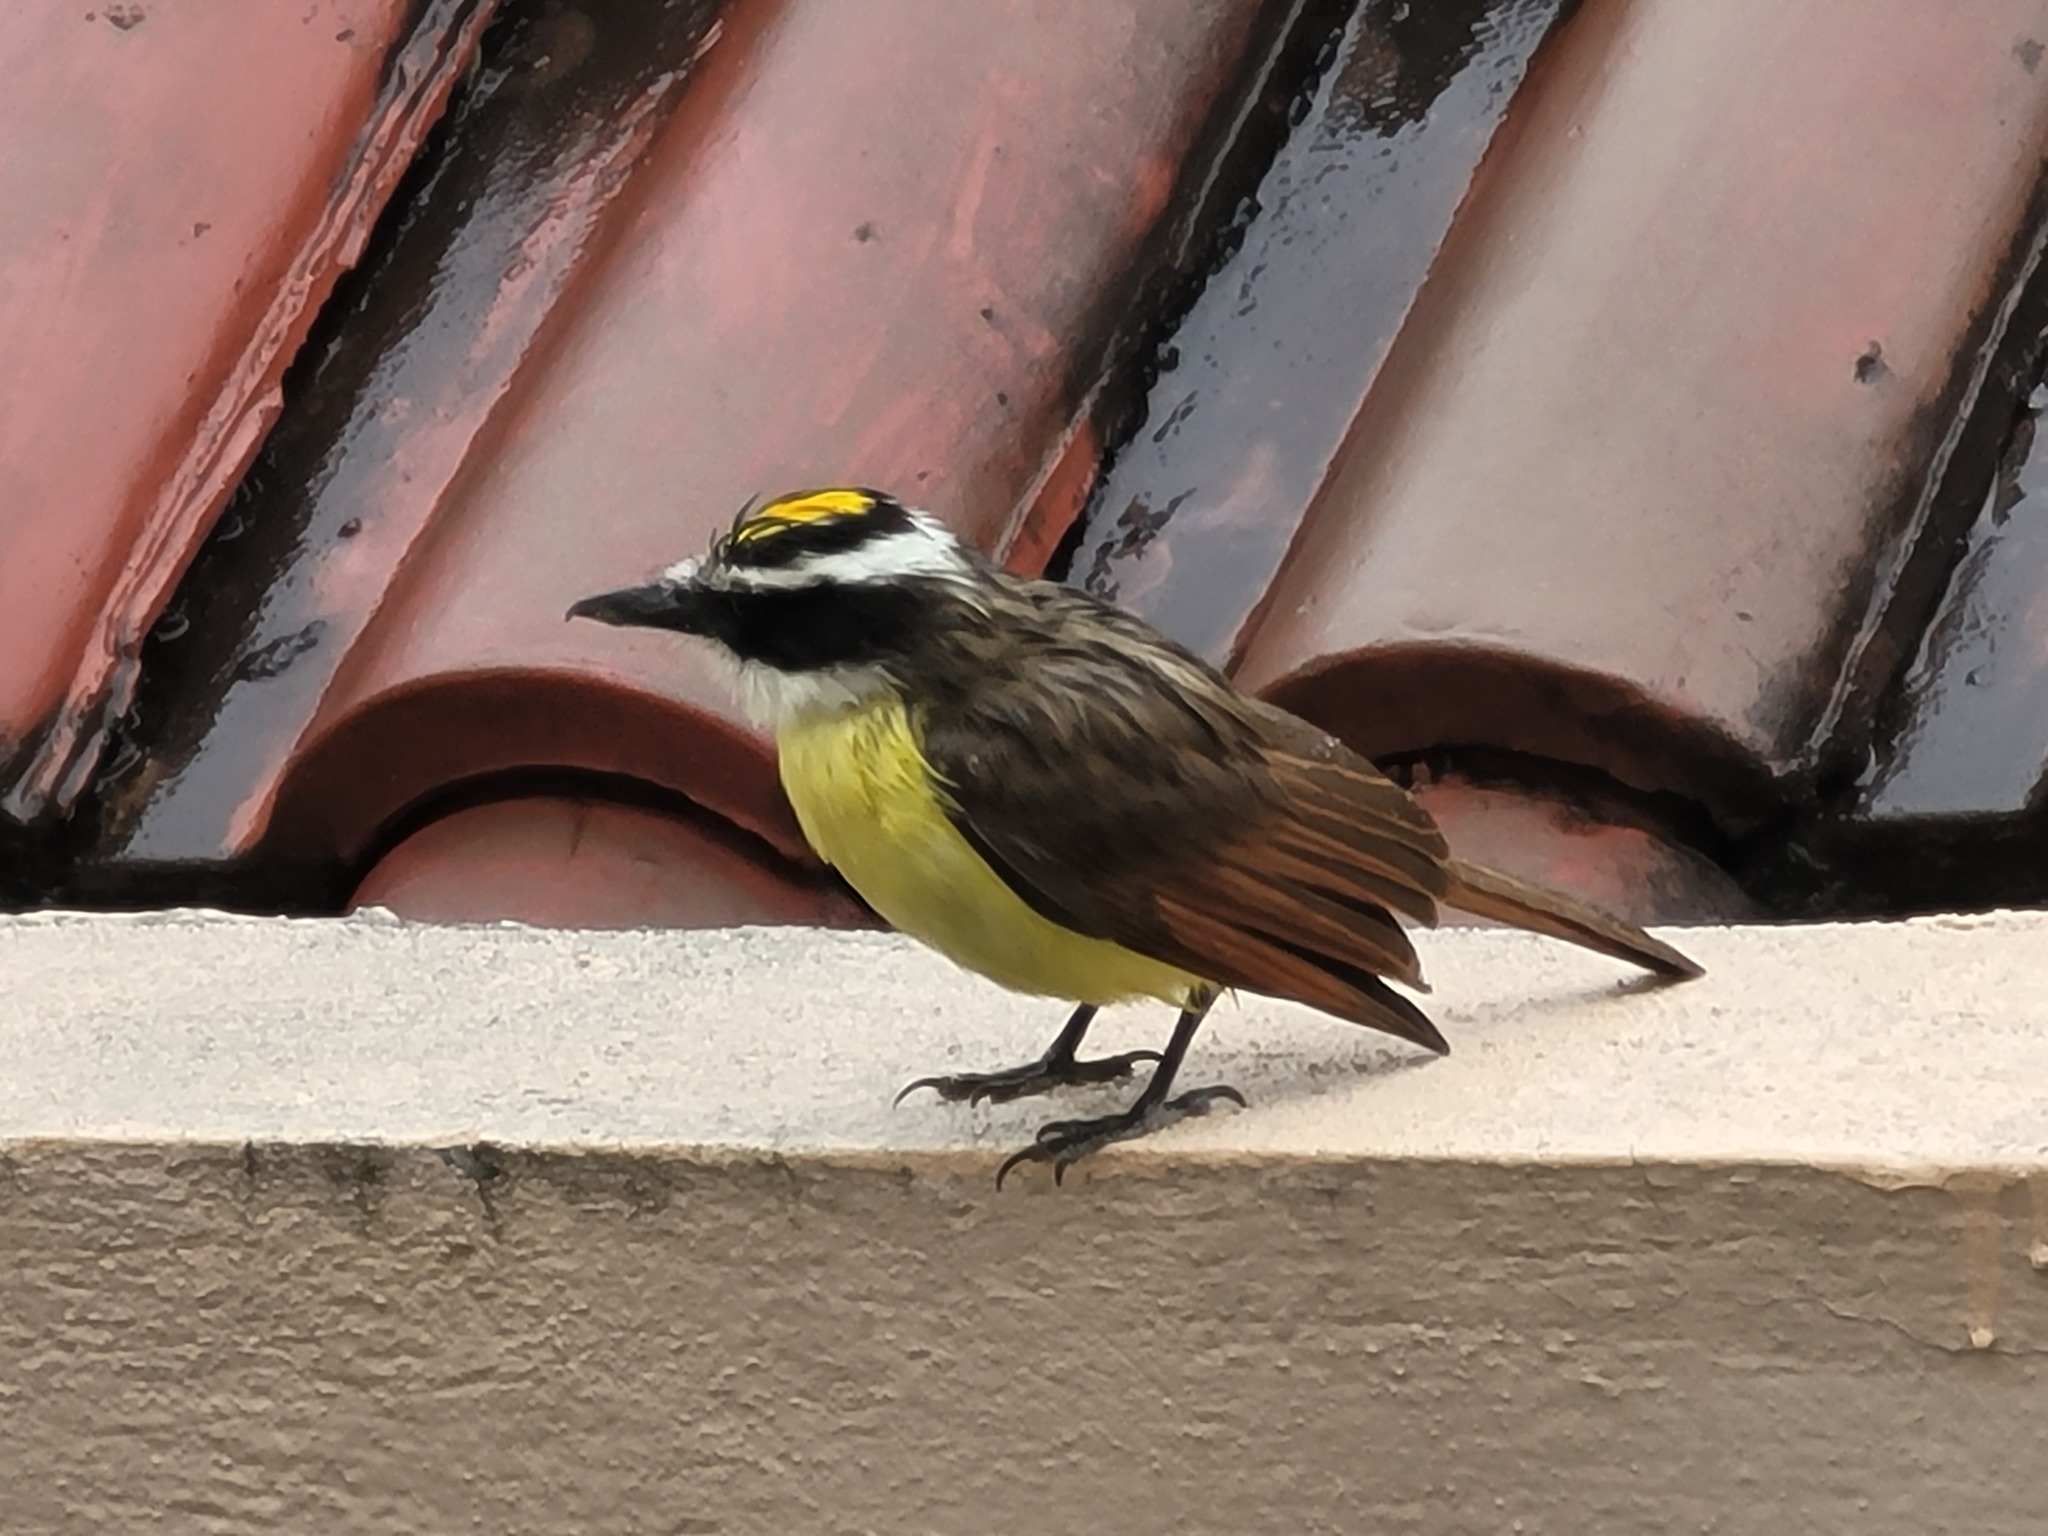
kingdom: Animalia
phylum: Chordata
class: Aves
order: Passeriformes
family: Tyrannidae
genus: Pitangus
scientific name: Pitangus sulphuratus
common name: Great kiskadee
